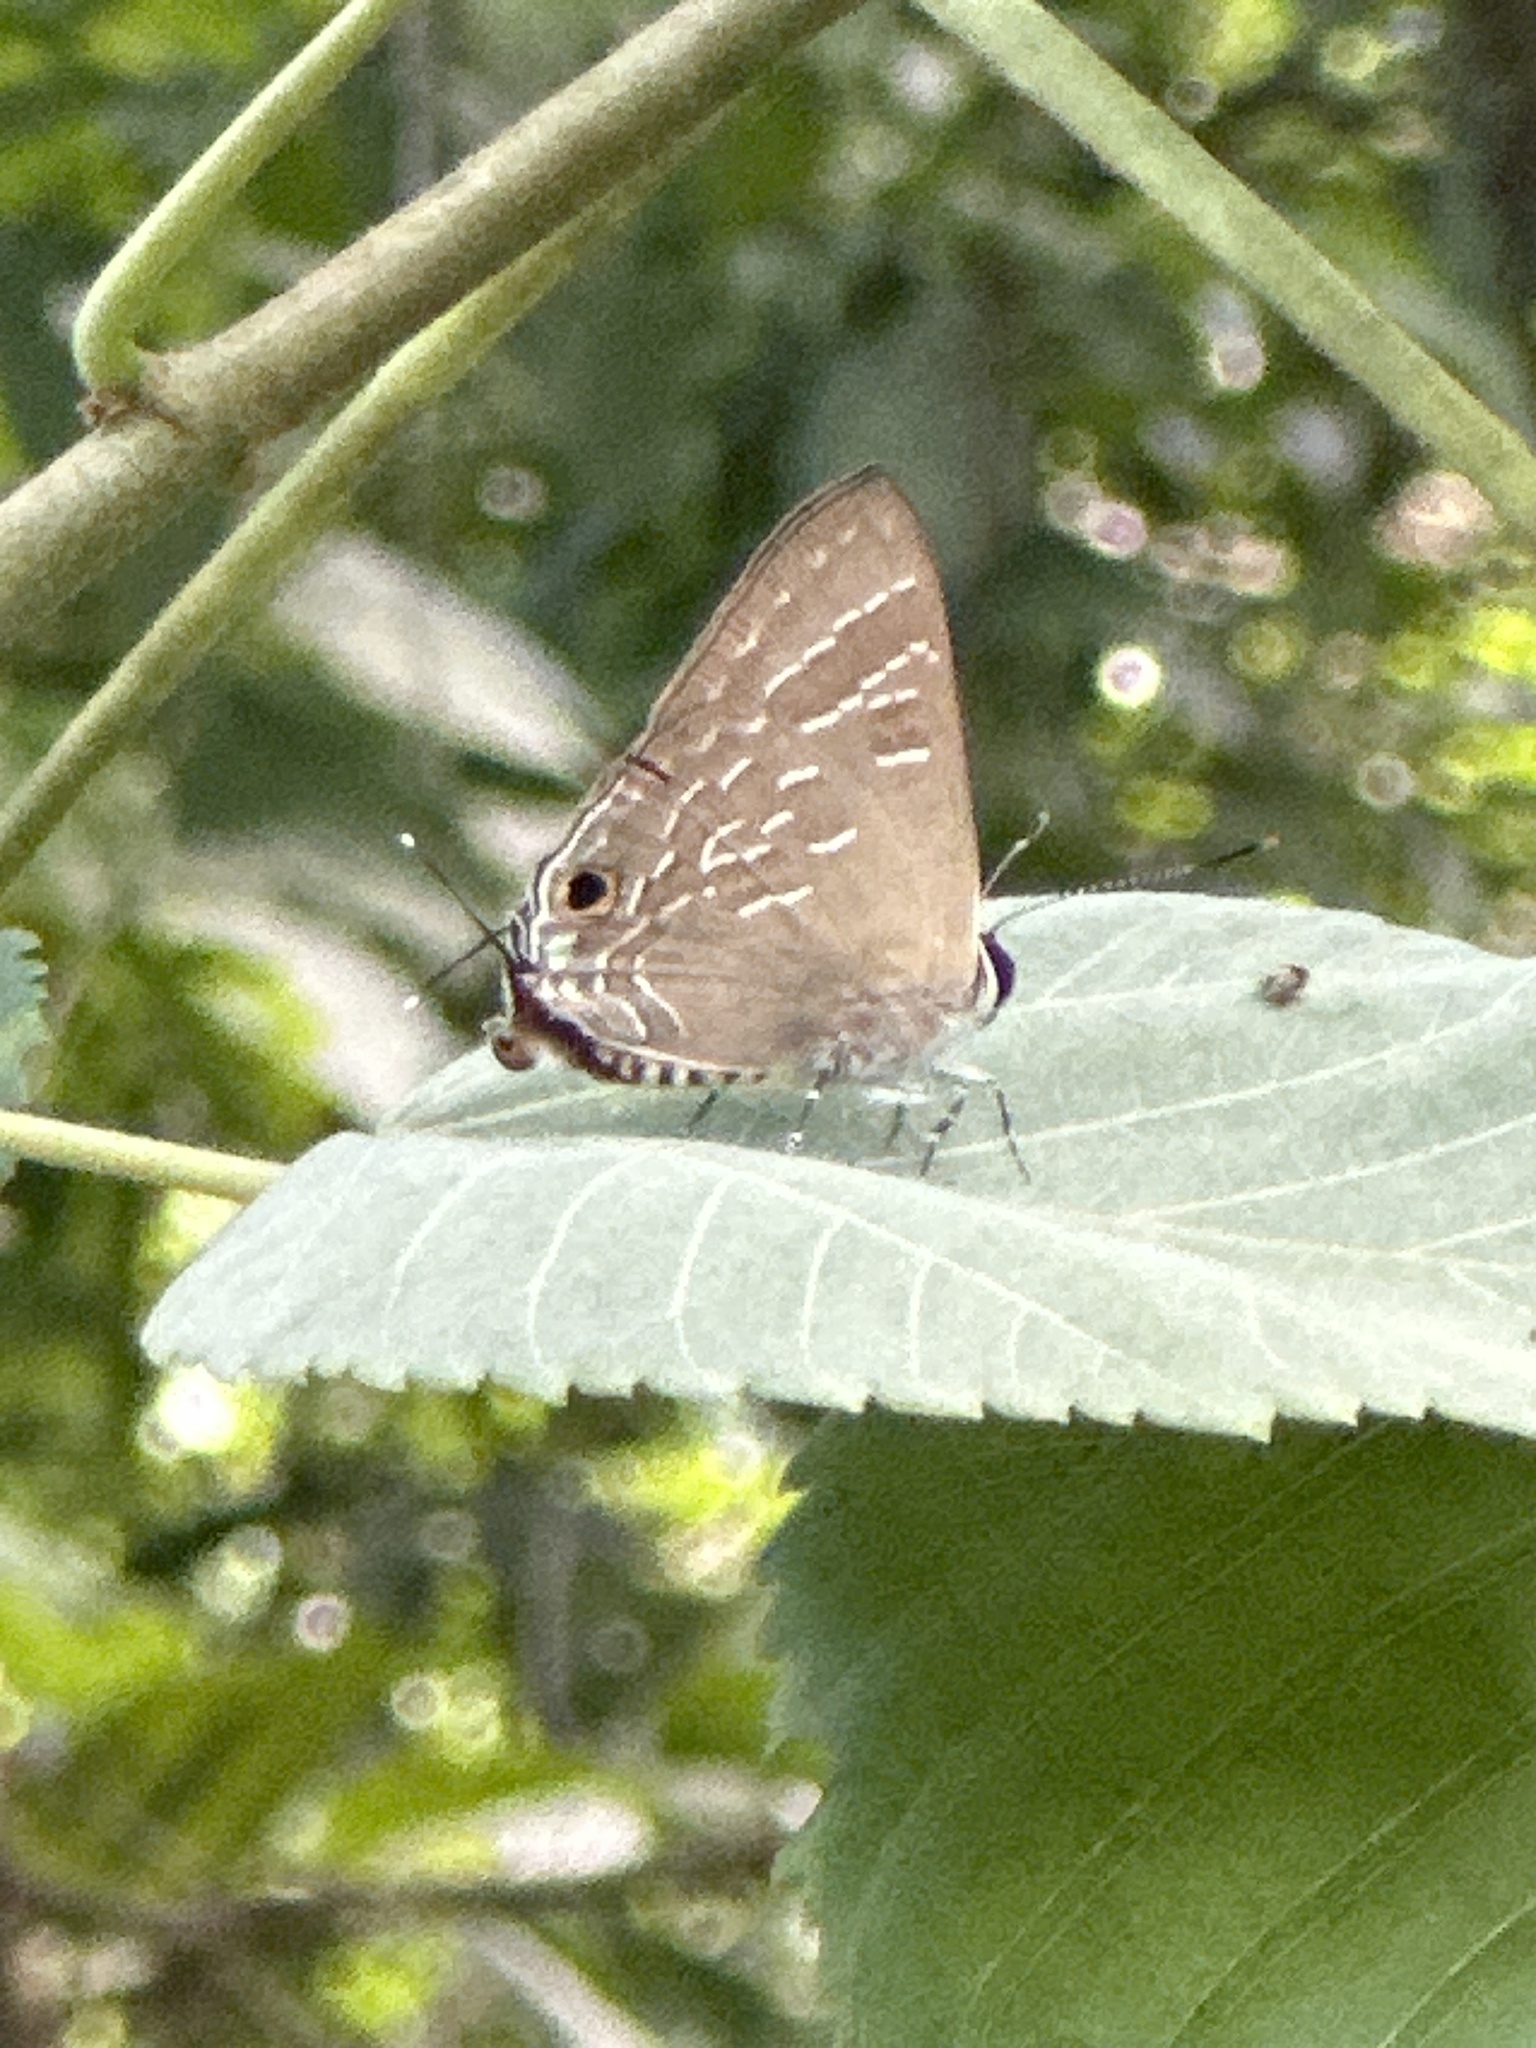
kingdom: Animalia
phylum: Arthropoda
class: Insecta
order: Lepidoptera
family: Lycaenidae
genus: Deudorix
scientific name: Deudorix epijarbas
